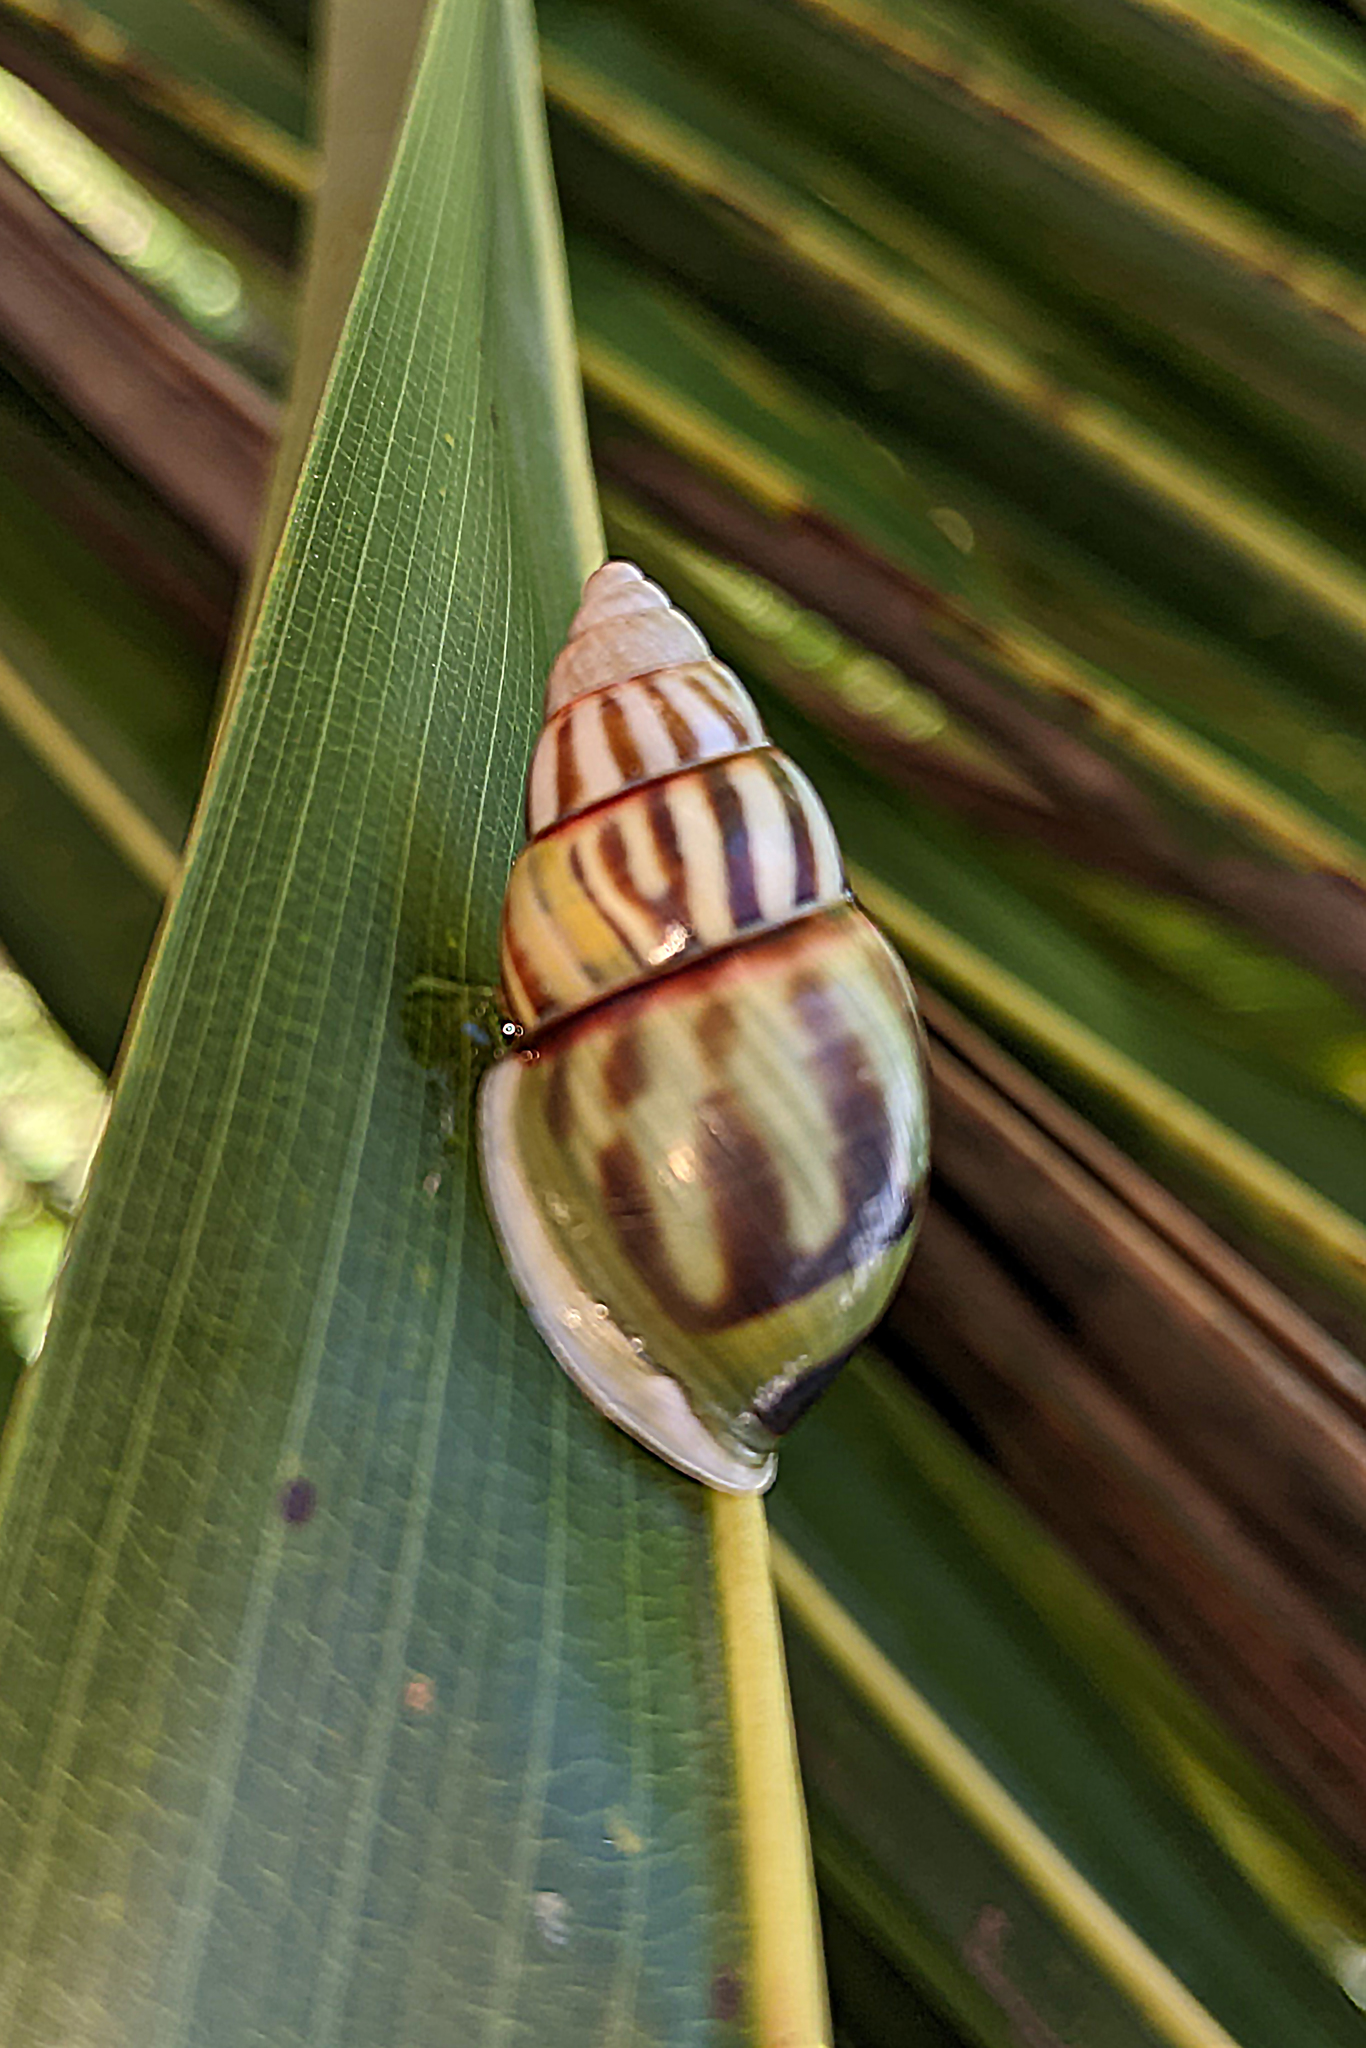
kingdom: Animalia
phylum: Mollusca
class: Gastropoda
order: Stylommatophora
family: Camaenidae
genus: Amphidromus
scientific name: Amphidromus andamanicus
